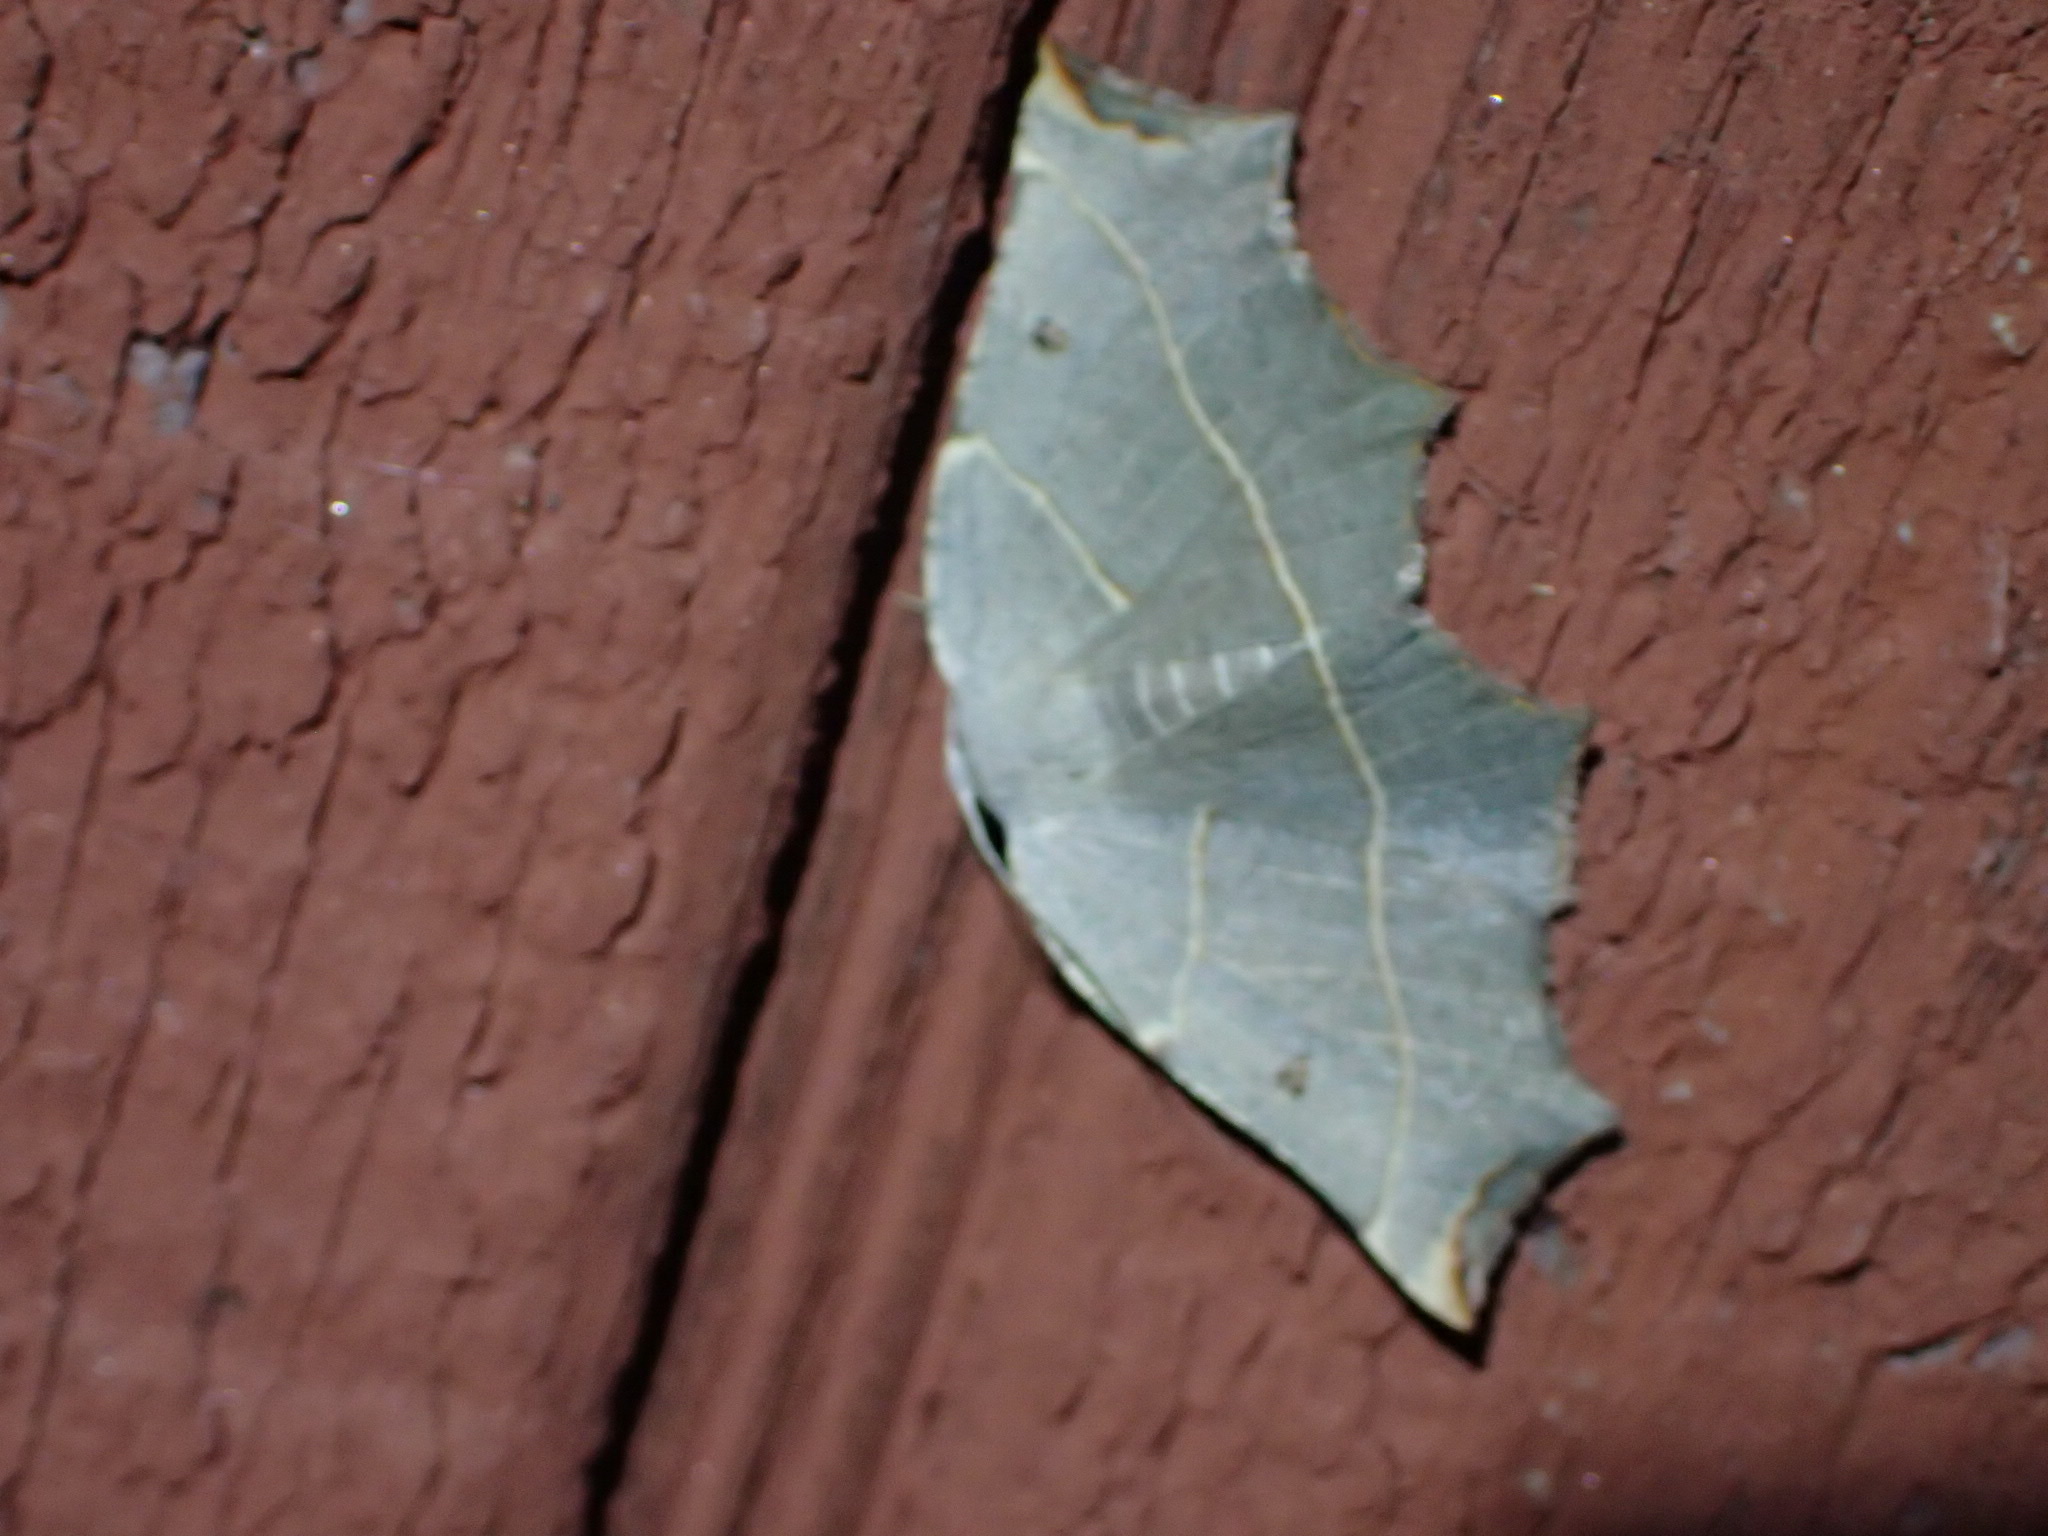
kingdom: Animalia
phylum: Arthropoda
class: Insecta
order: Lepidoptera
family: Geometridae
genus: Metanema
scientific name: Metanema inatomaria
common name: Pale metanema
